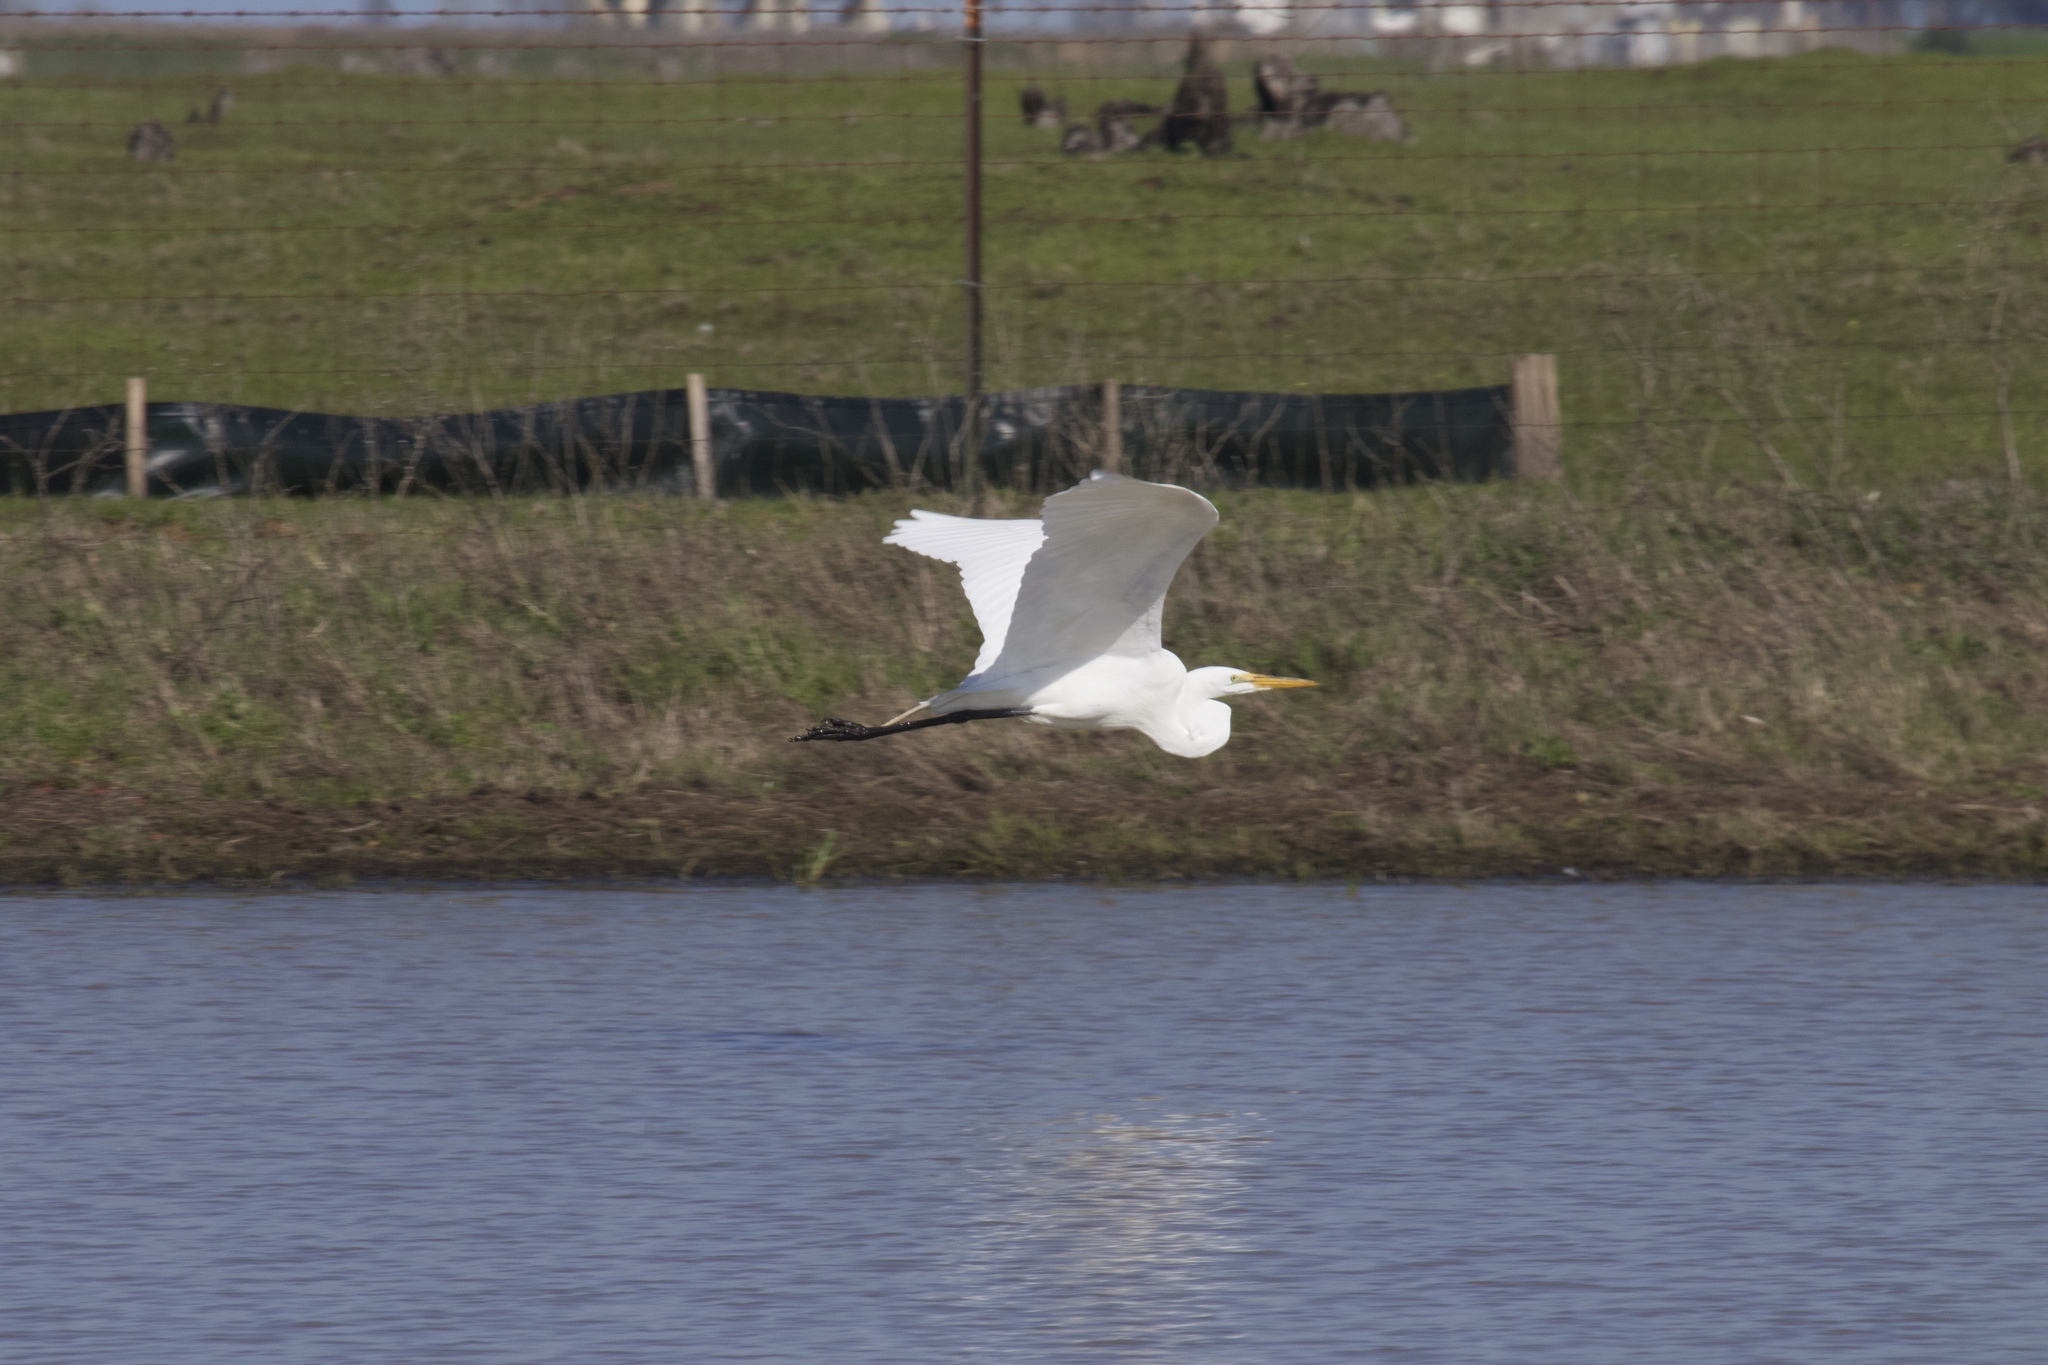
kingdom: Animalia
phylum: Chordata
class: Aves
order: Pelecaniformes
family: Ardeidae
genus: Ardea
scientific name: Ardea alba
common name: Great egret
